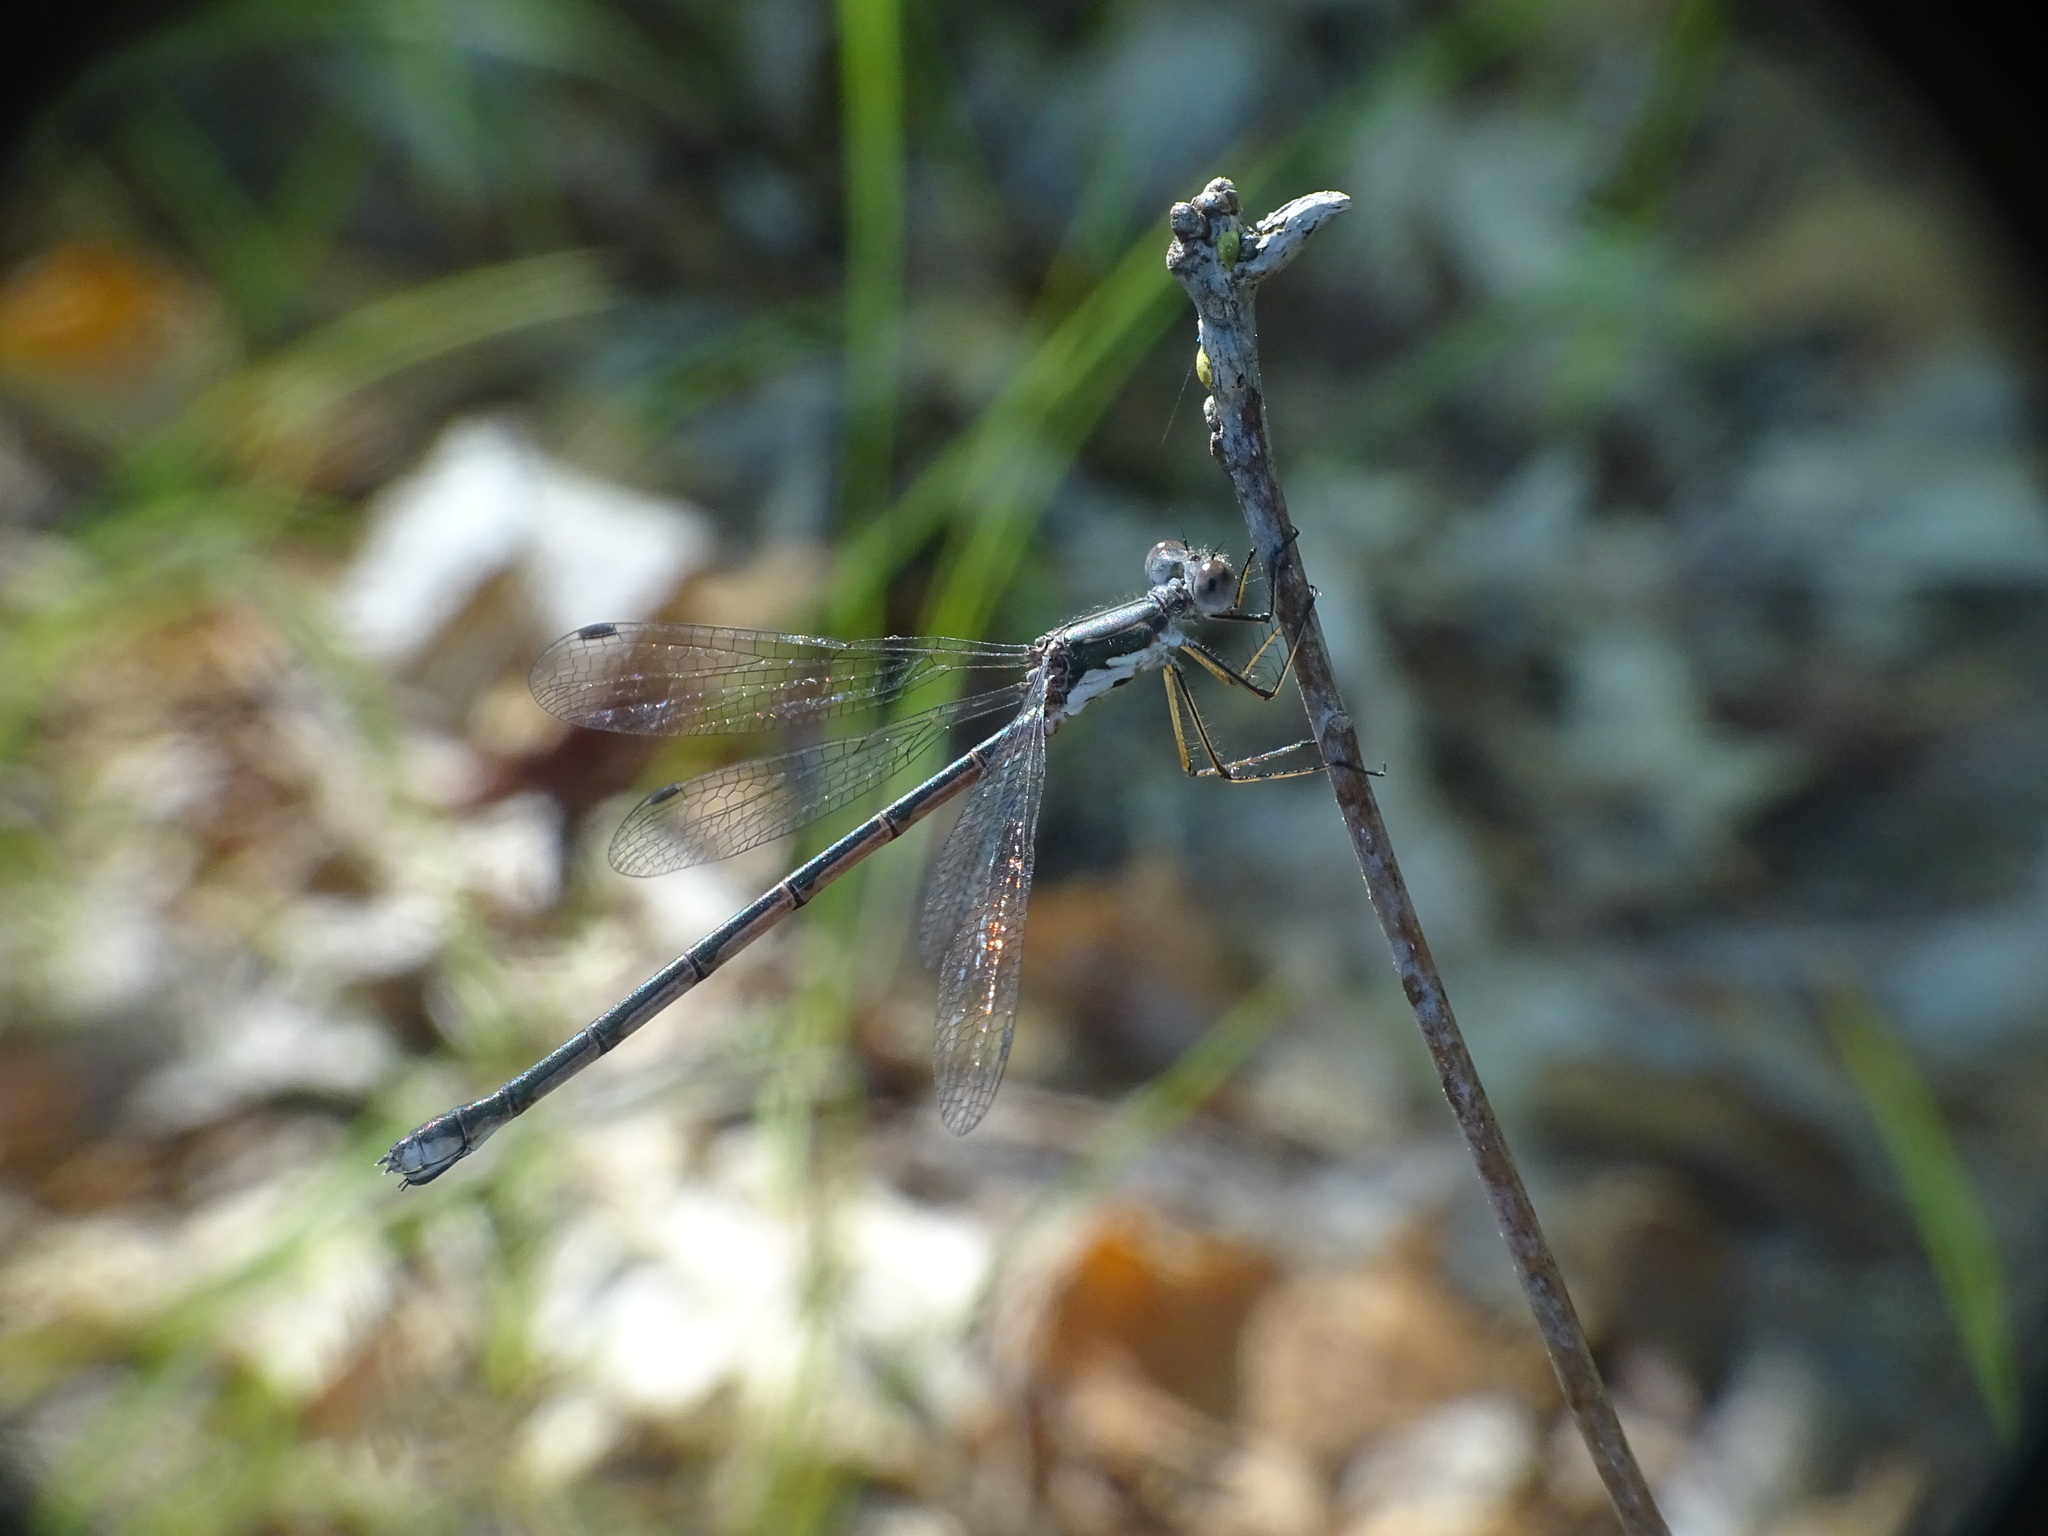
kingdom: Animalia
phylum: Arthropoda
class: Insecta
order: Odonata
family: Lestidae
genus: Lestes
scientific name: Lestes congener
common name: Spotted spreadwing
